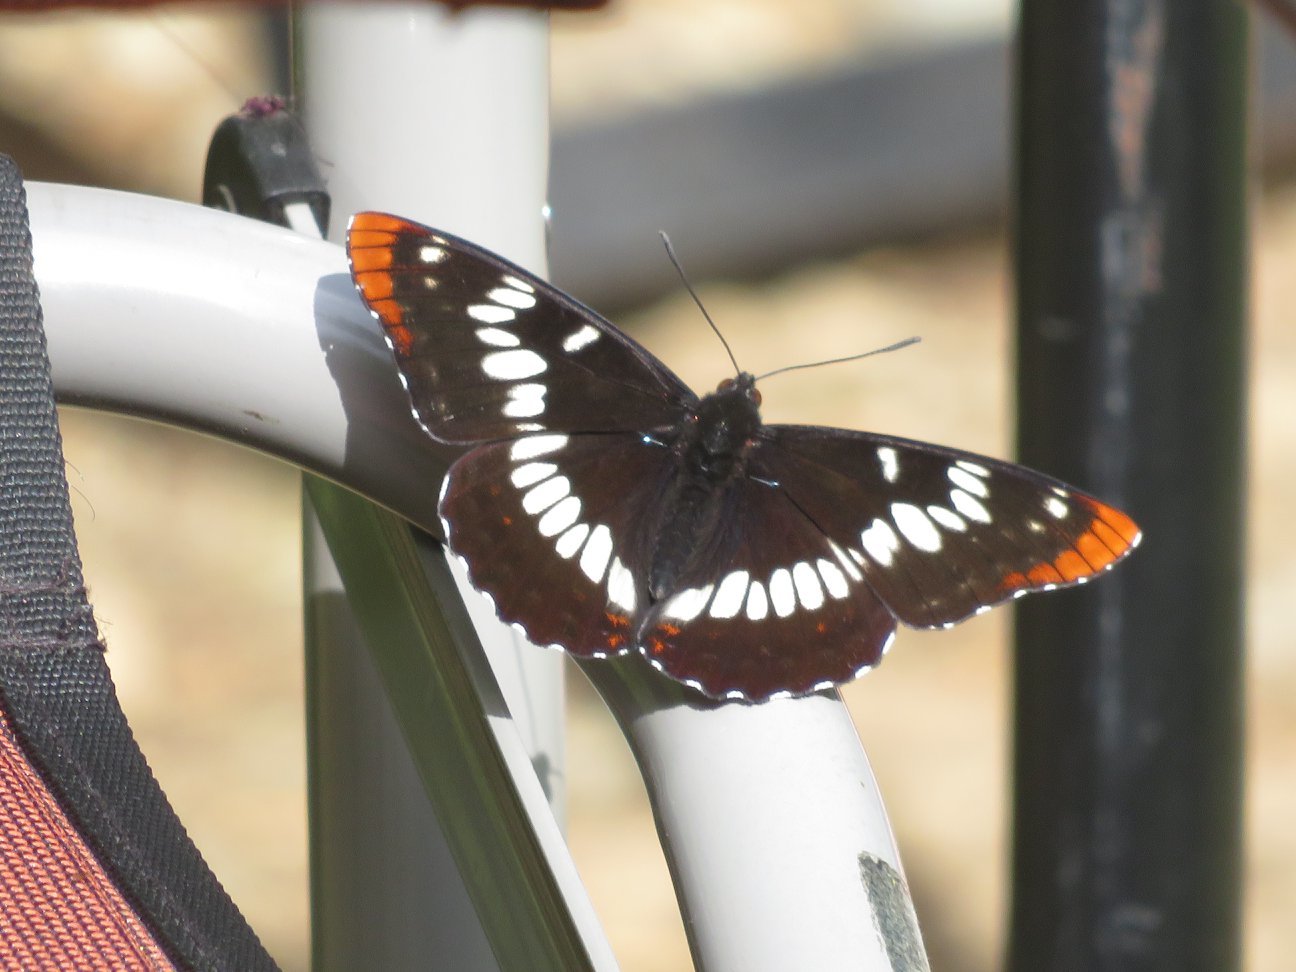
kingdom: Animalia
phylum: Arthropoda
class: Insecta
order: Lepidoptera
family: Nymphalidae
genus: Limenitis
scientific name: Limenitis lorquini
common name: Lorquin's admiral
